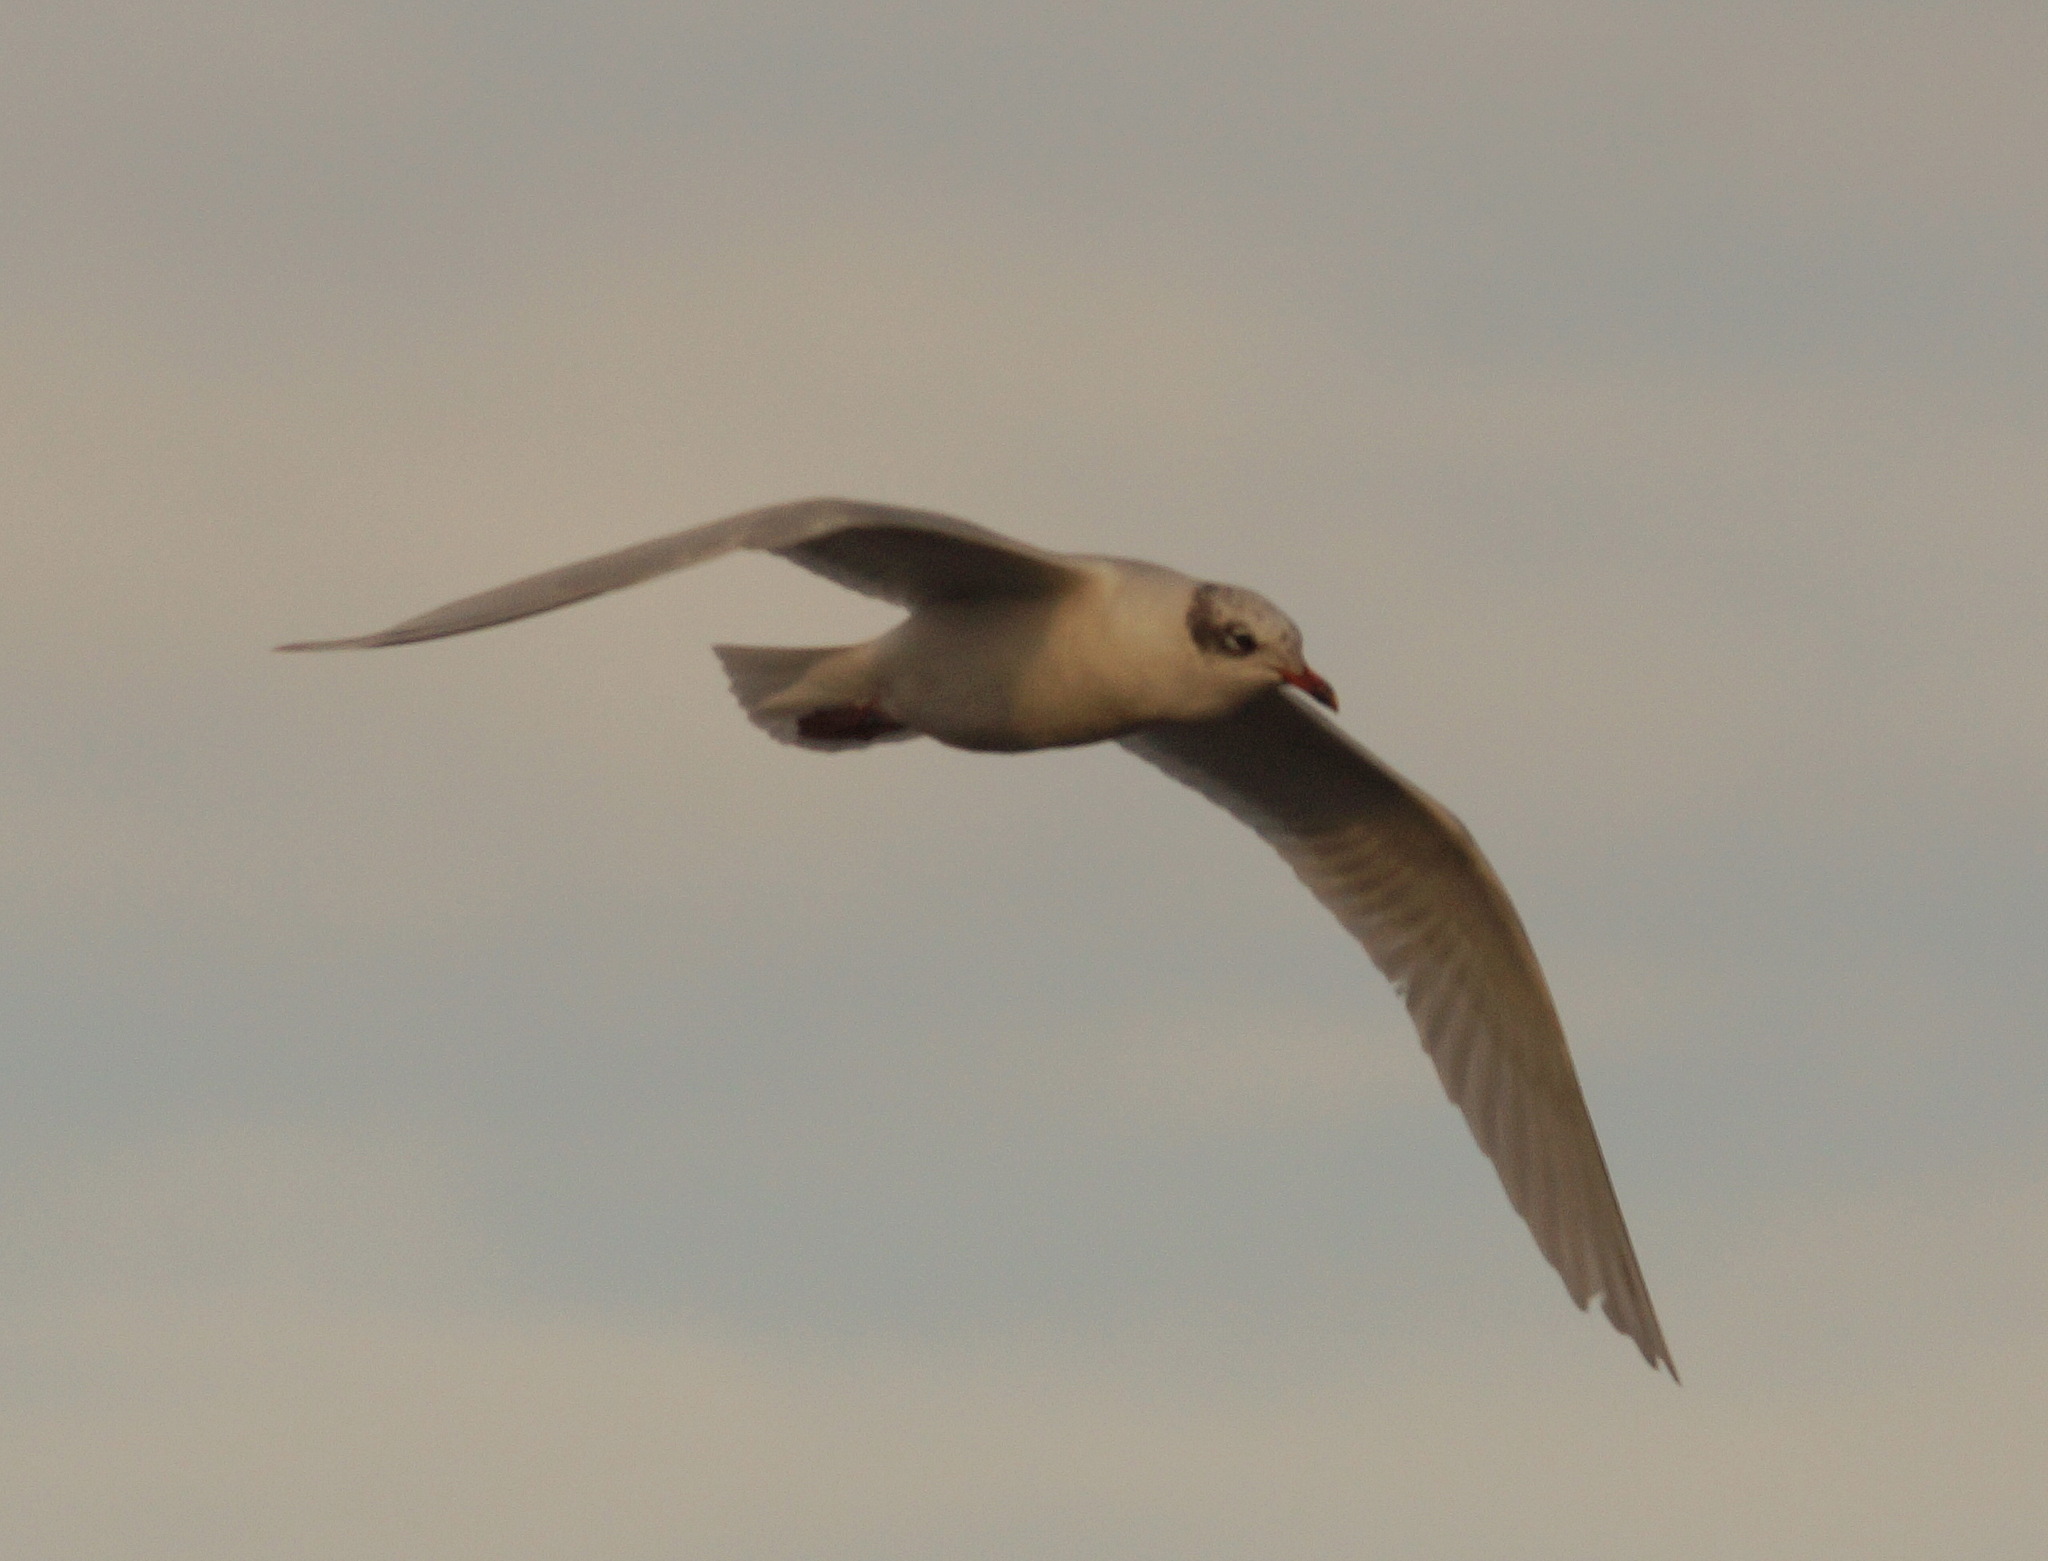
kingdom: Animalia
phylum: Chordata
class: Aves
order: Charadriiformes
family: Laridae
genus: Ichthyaetus
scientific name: Ichthyaetus melanocephalus
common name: Mediterranean gull
